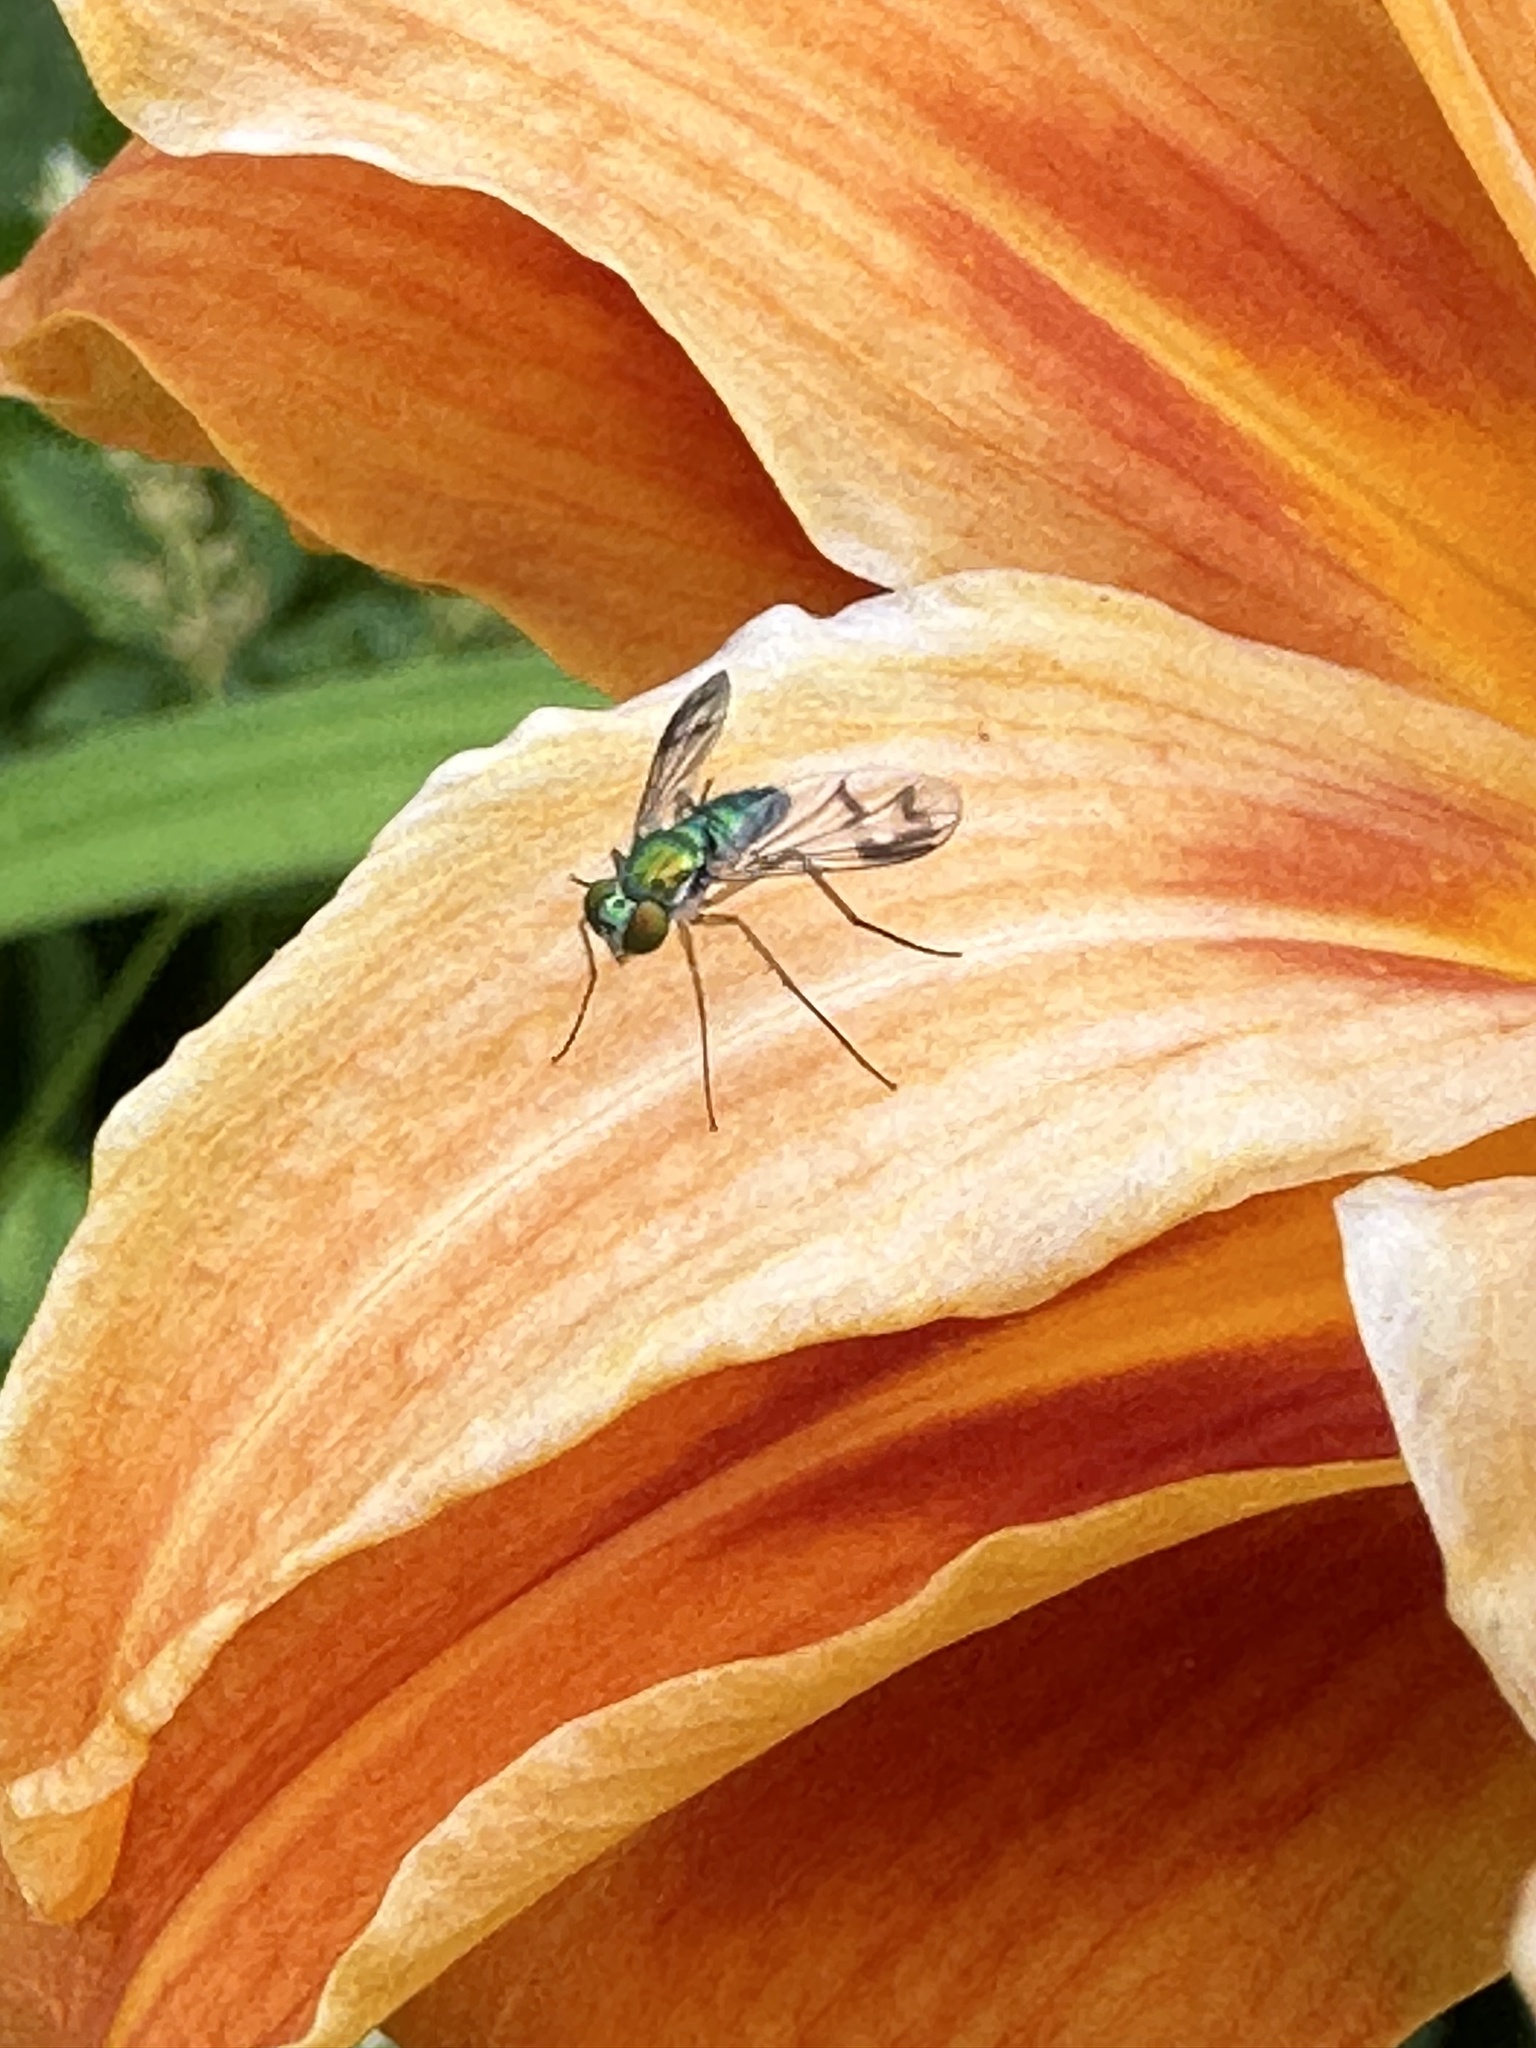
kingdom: Animalia
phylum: Arthropoda
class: Insecta
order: Diptera
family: Dolichopodidae
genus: Condylostylus
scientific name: Condylostylus
